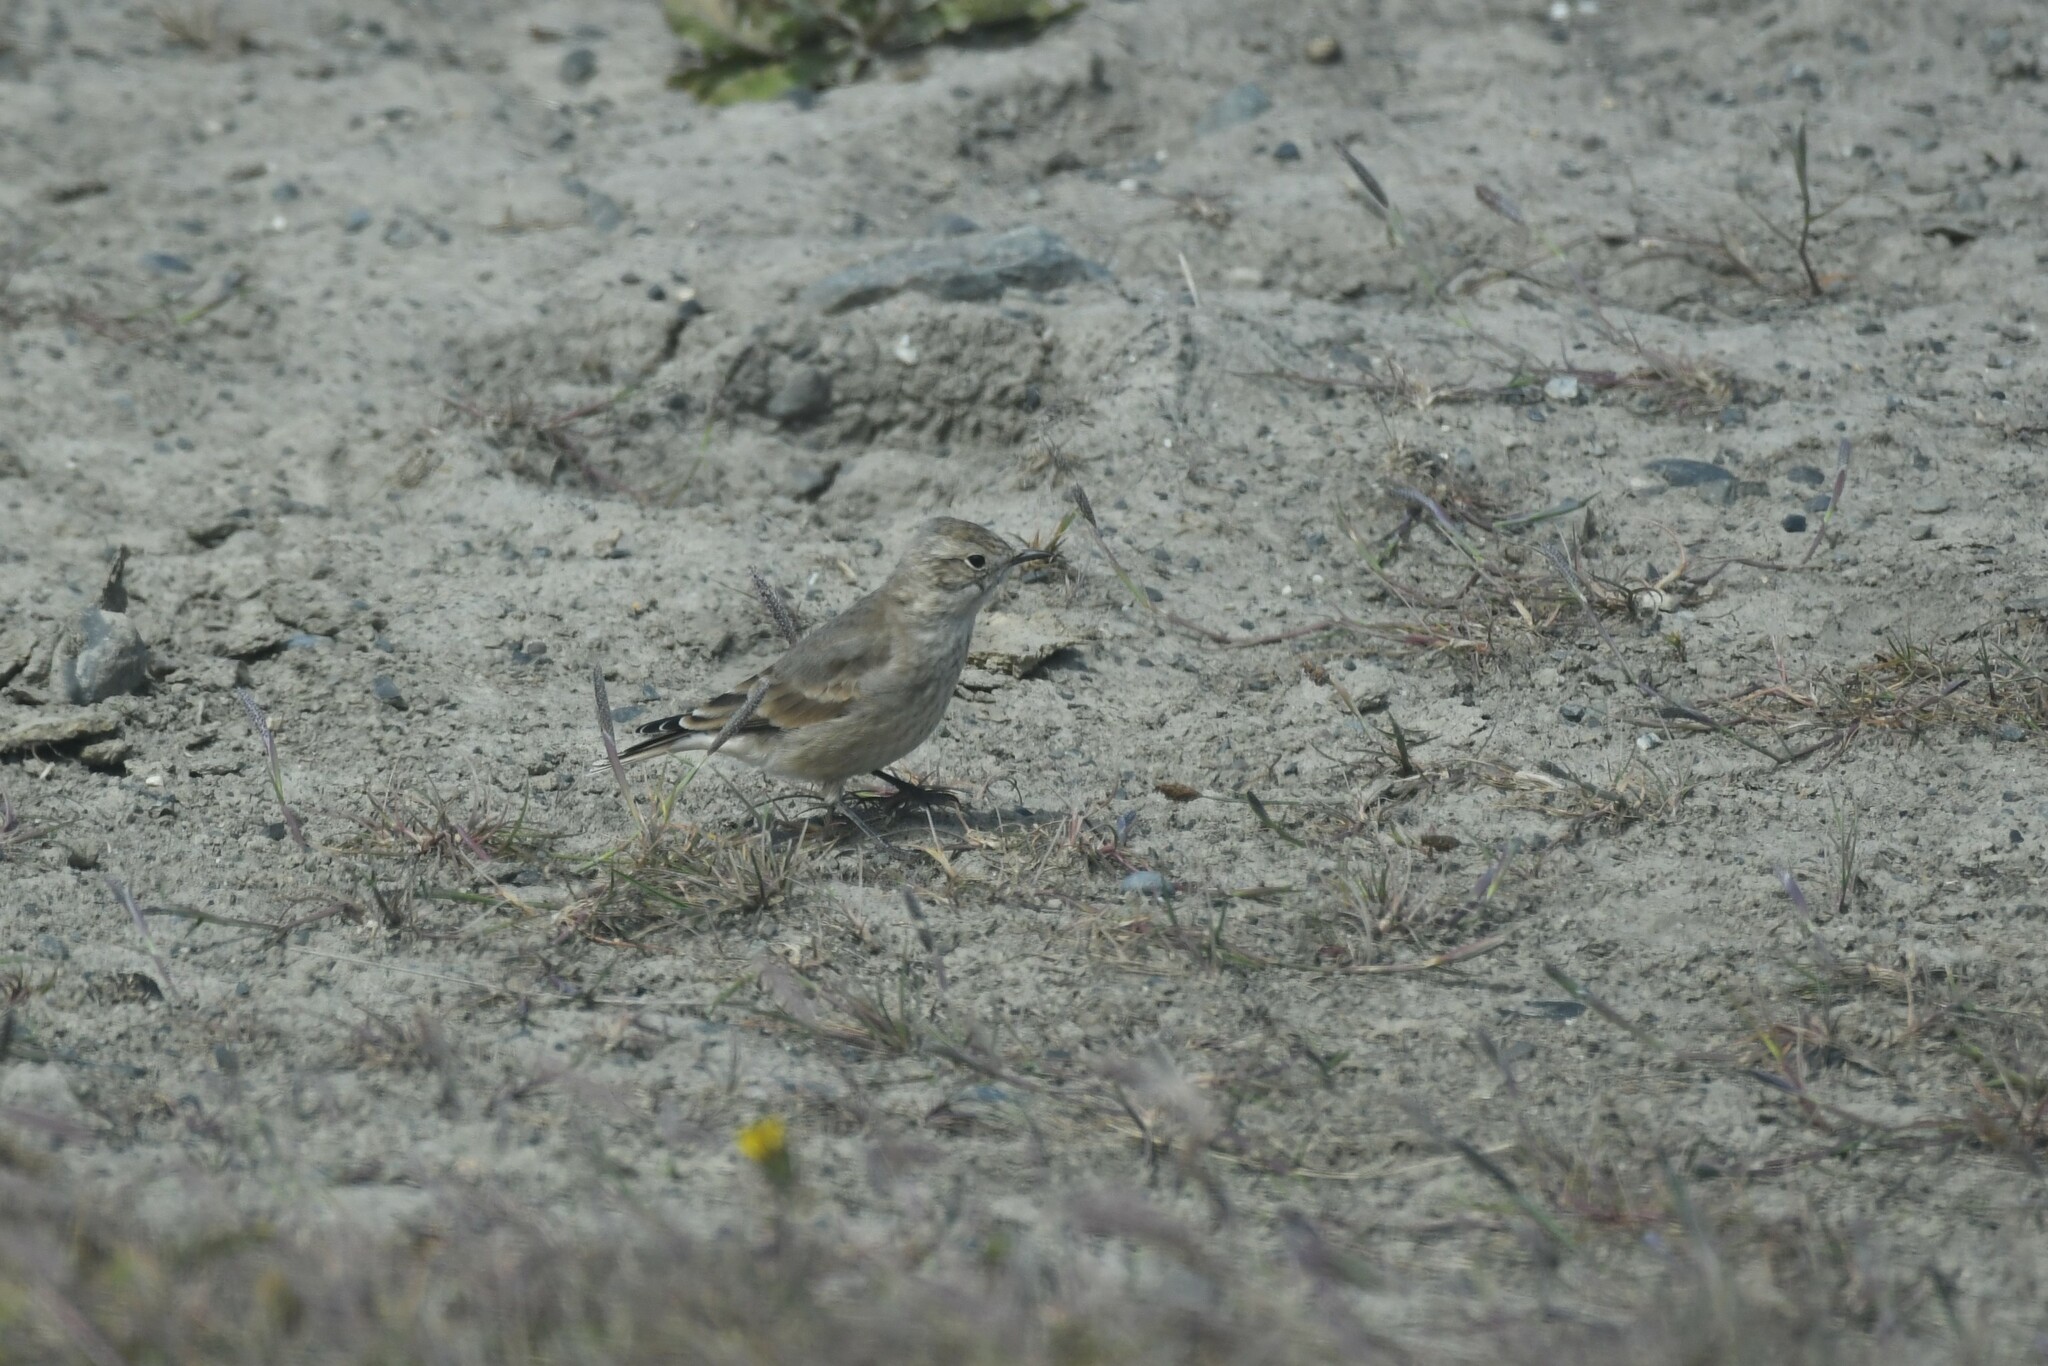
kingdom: Animalia
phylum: Chordata
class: Aves
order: Passeriformes
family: Furnariidae
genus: Geositta
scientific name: Geositta antarctica
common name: Short-billed miner
